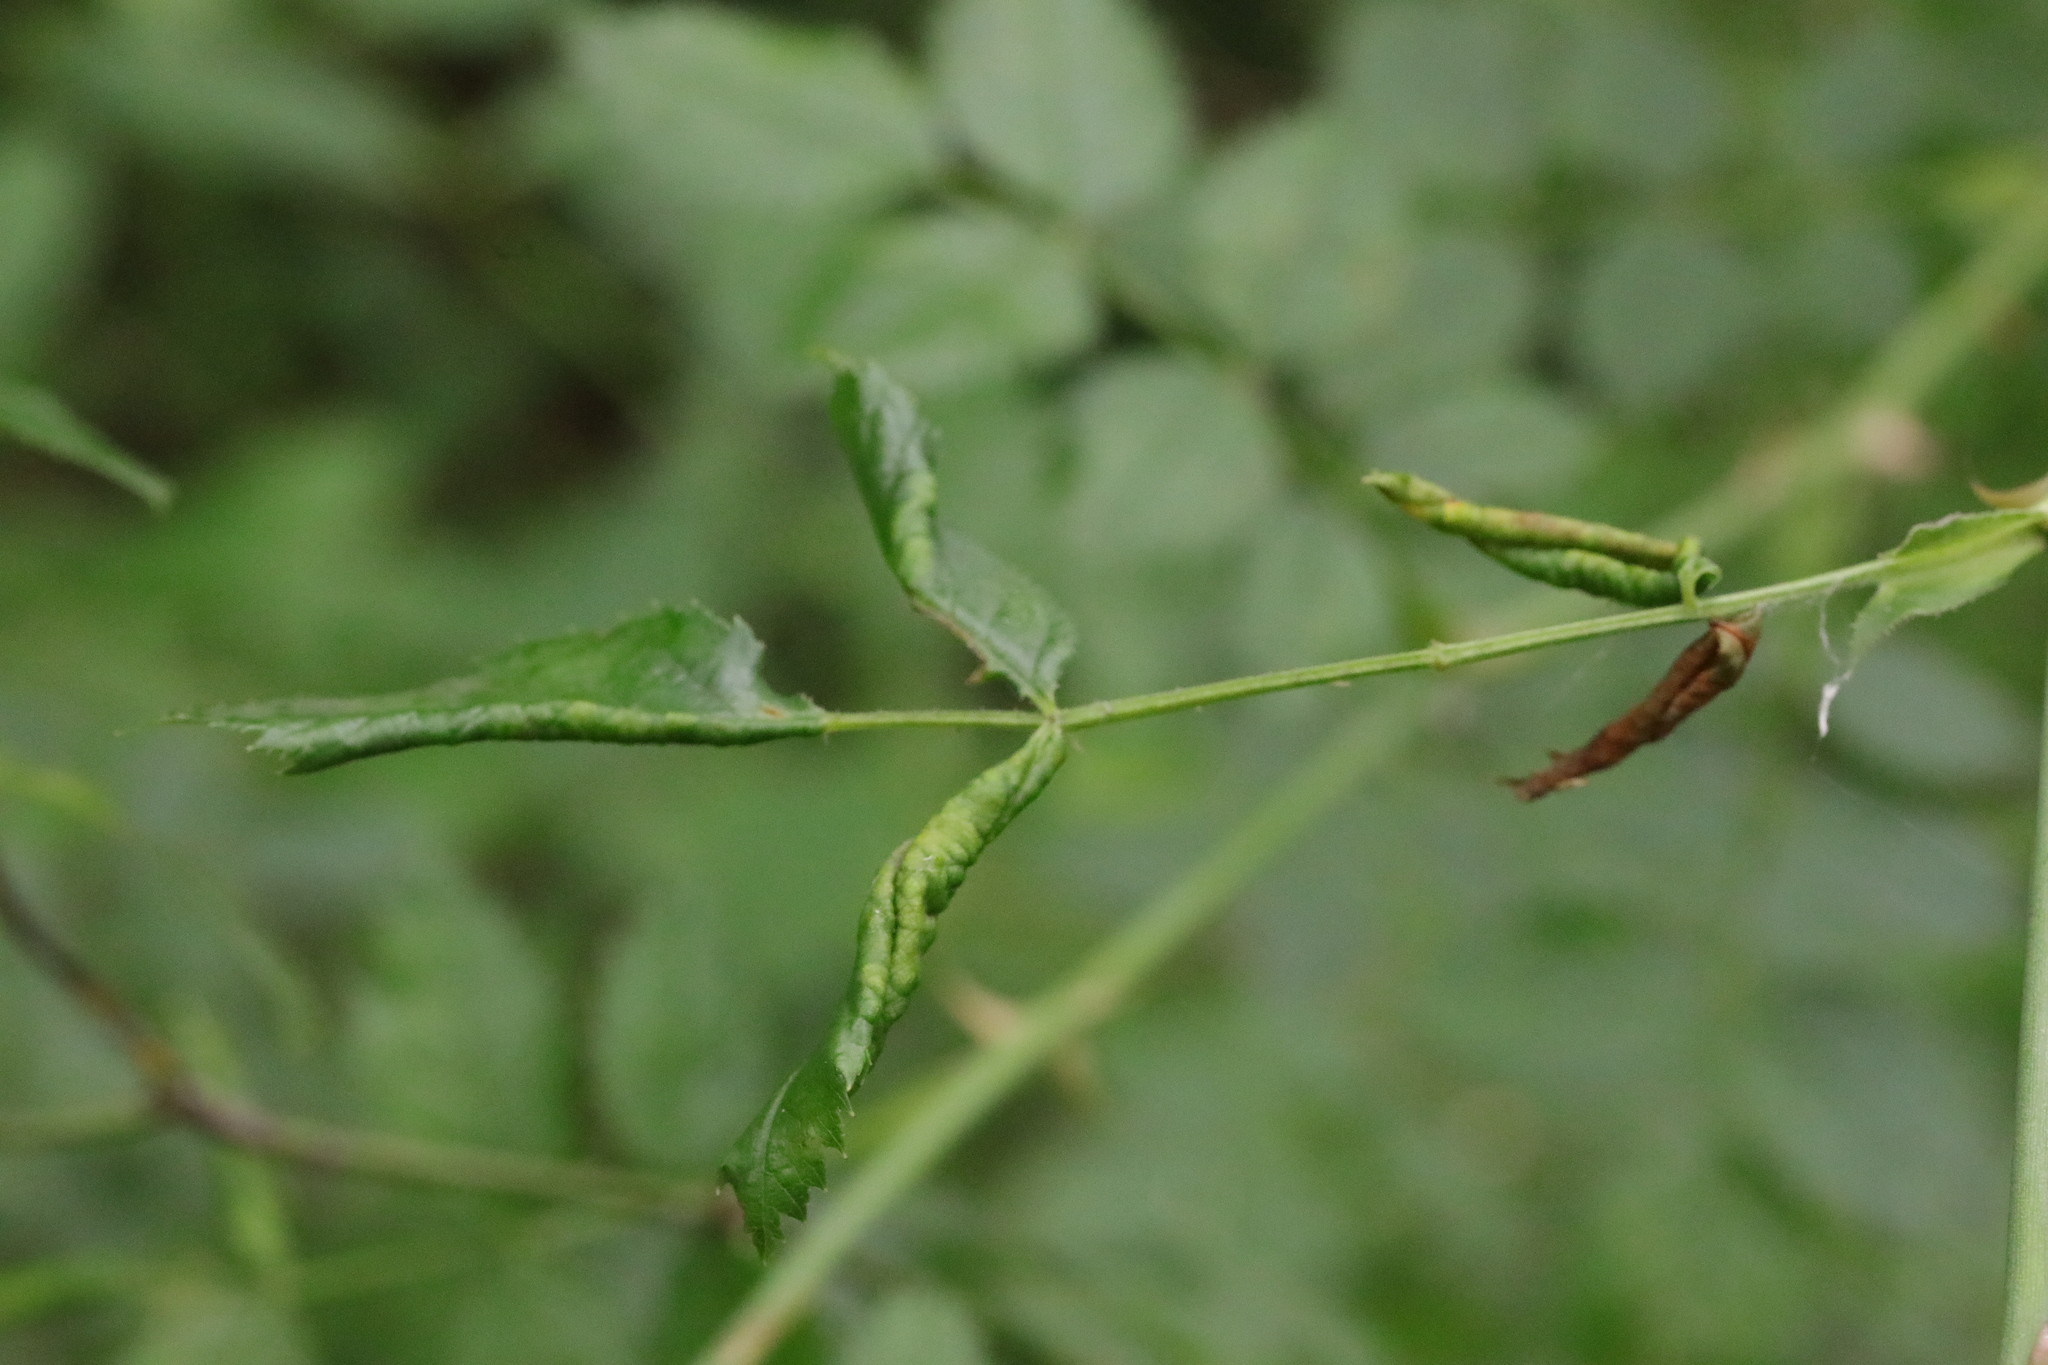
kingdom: Animalia
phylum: Arthropoda
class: Insecta
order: Hymenoptera
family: Tenthredinidae
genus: Blennocampa
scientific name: Blennocampa phyllocolpa
